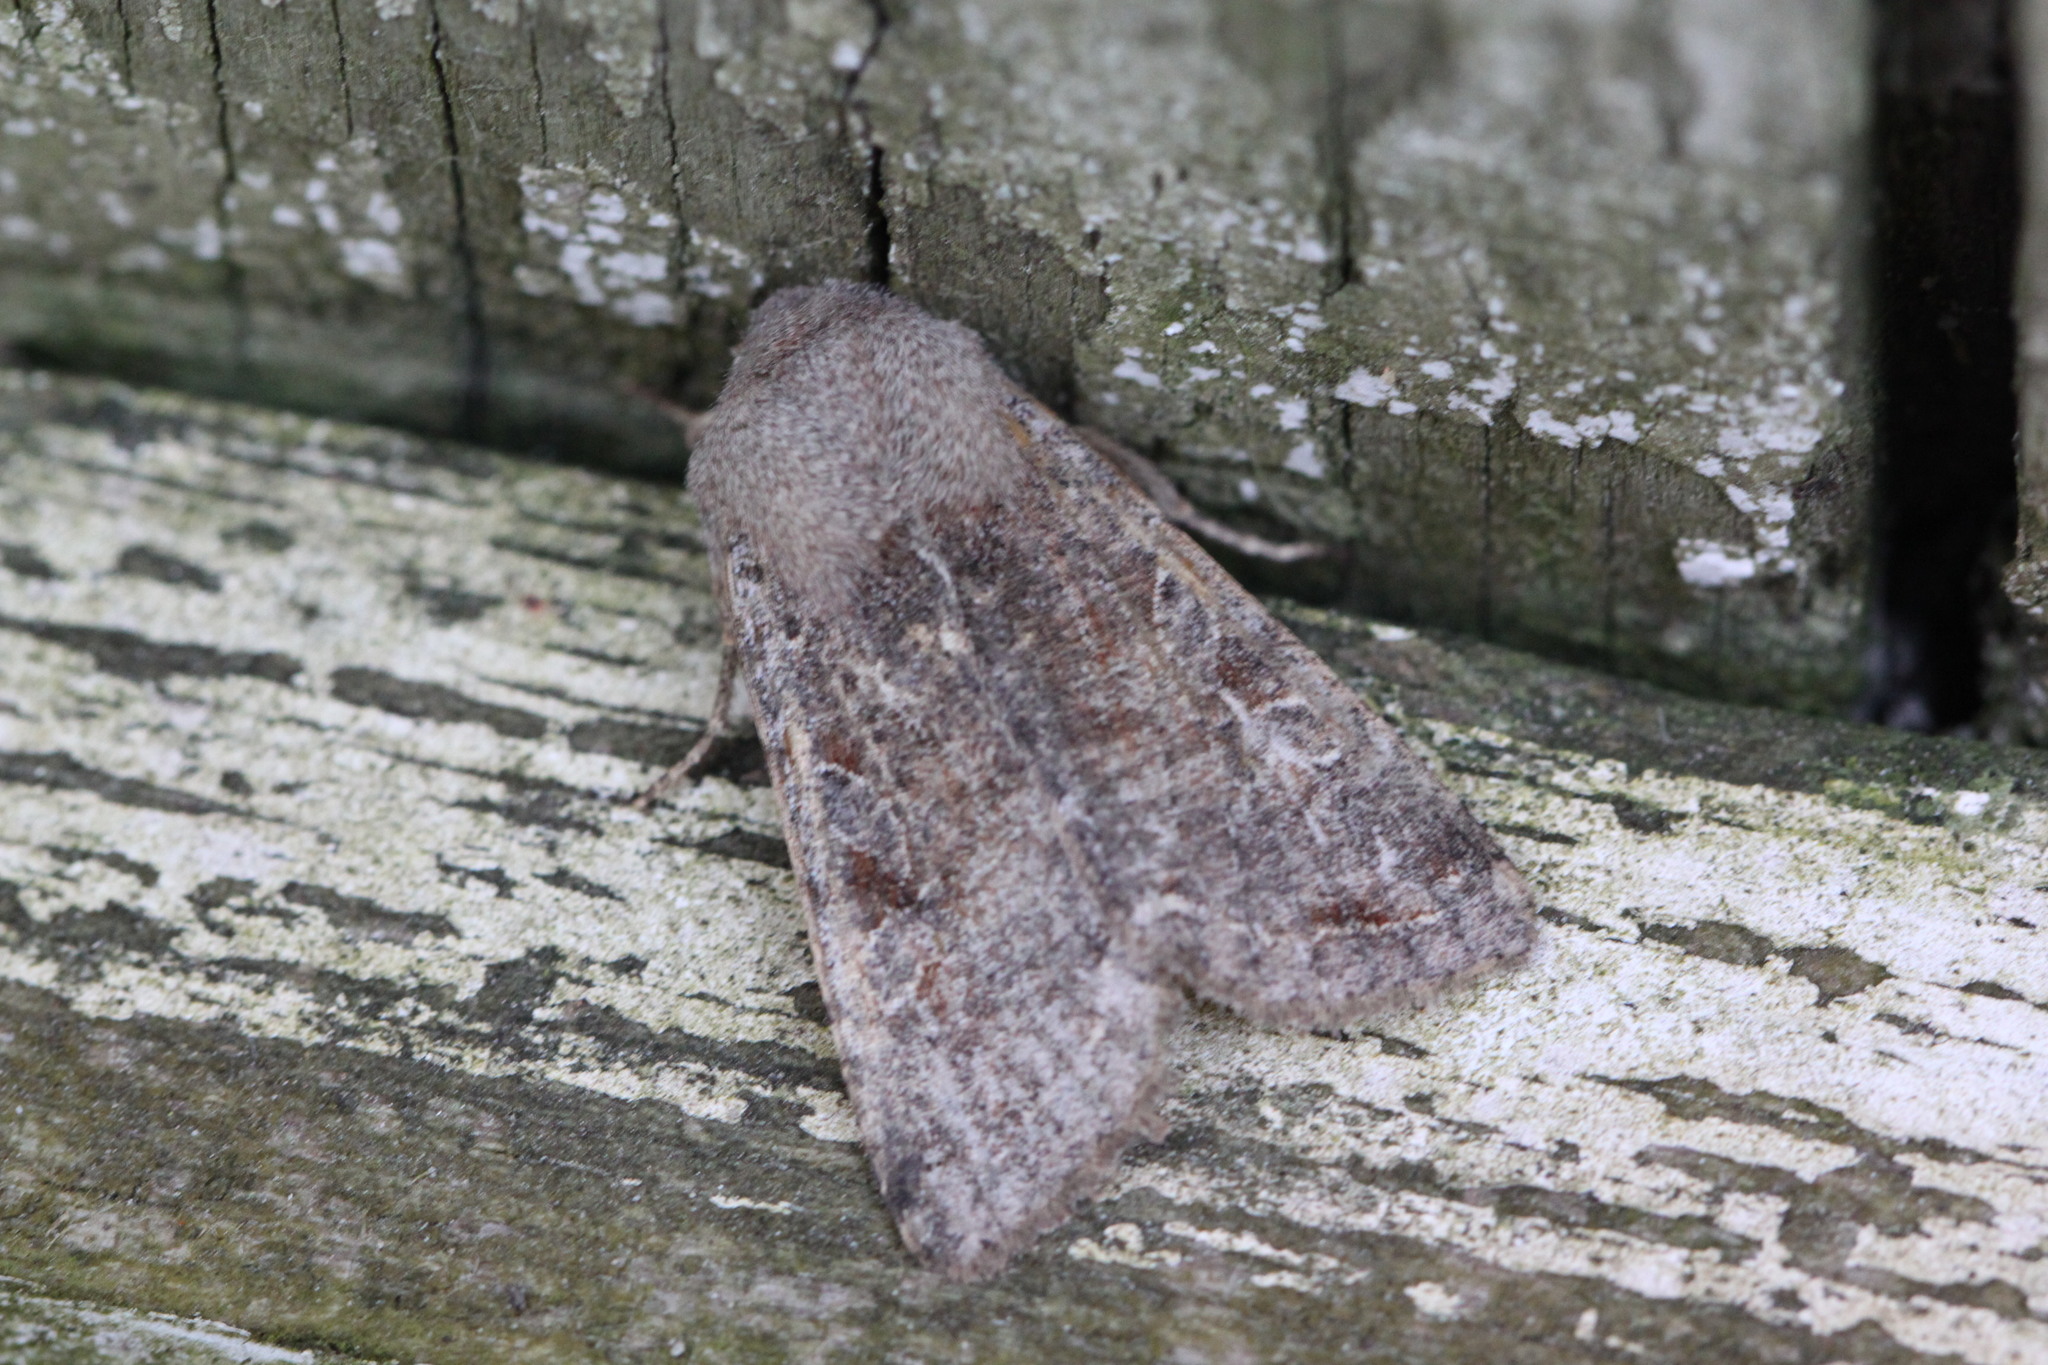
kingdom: Animalia
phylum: Arthropoda
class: Insecta
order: Lepidoptera
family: Noctuidae
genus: Orthosia
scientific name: Orthosia incerta
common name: Clouded drab
